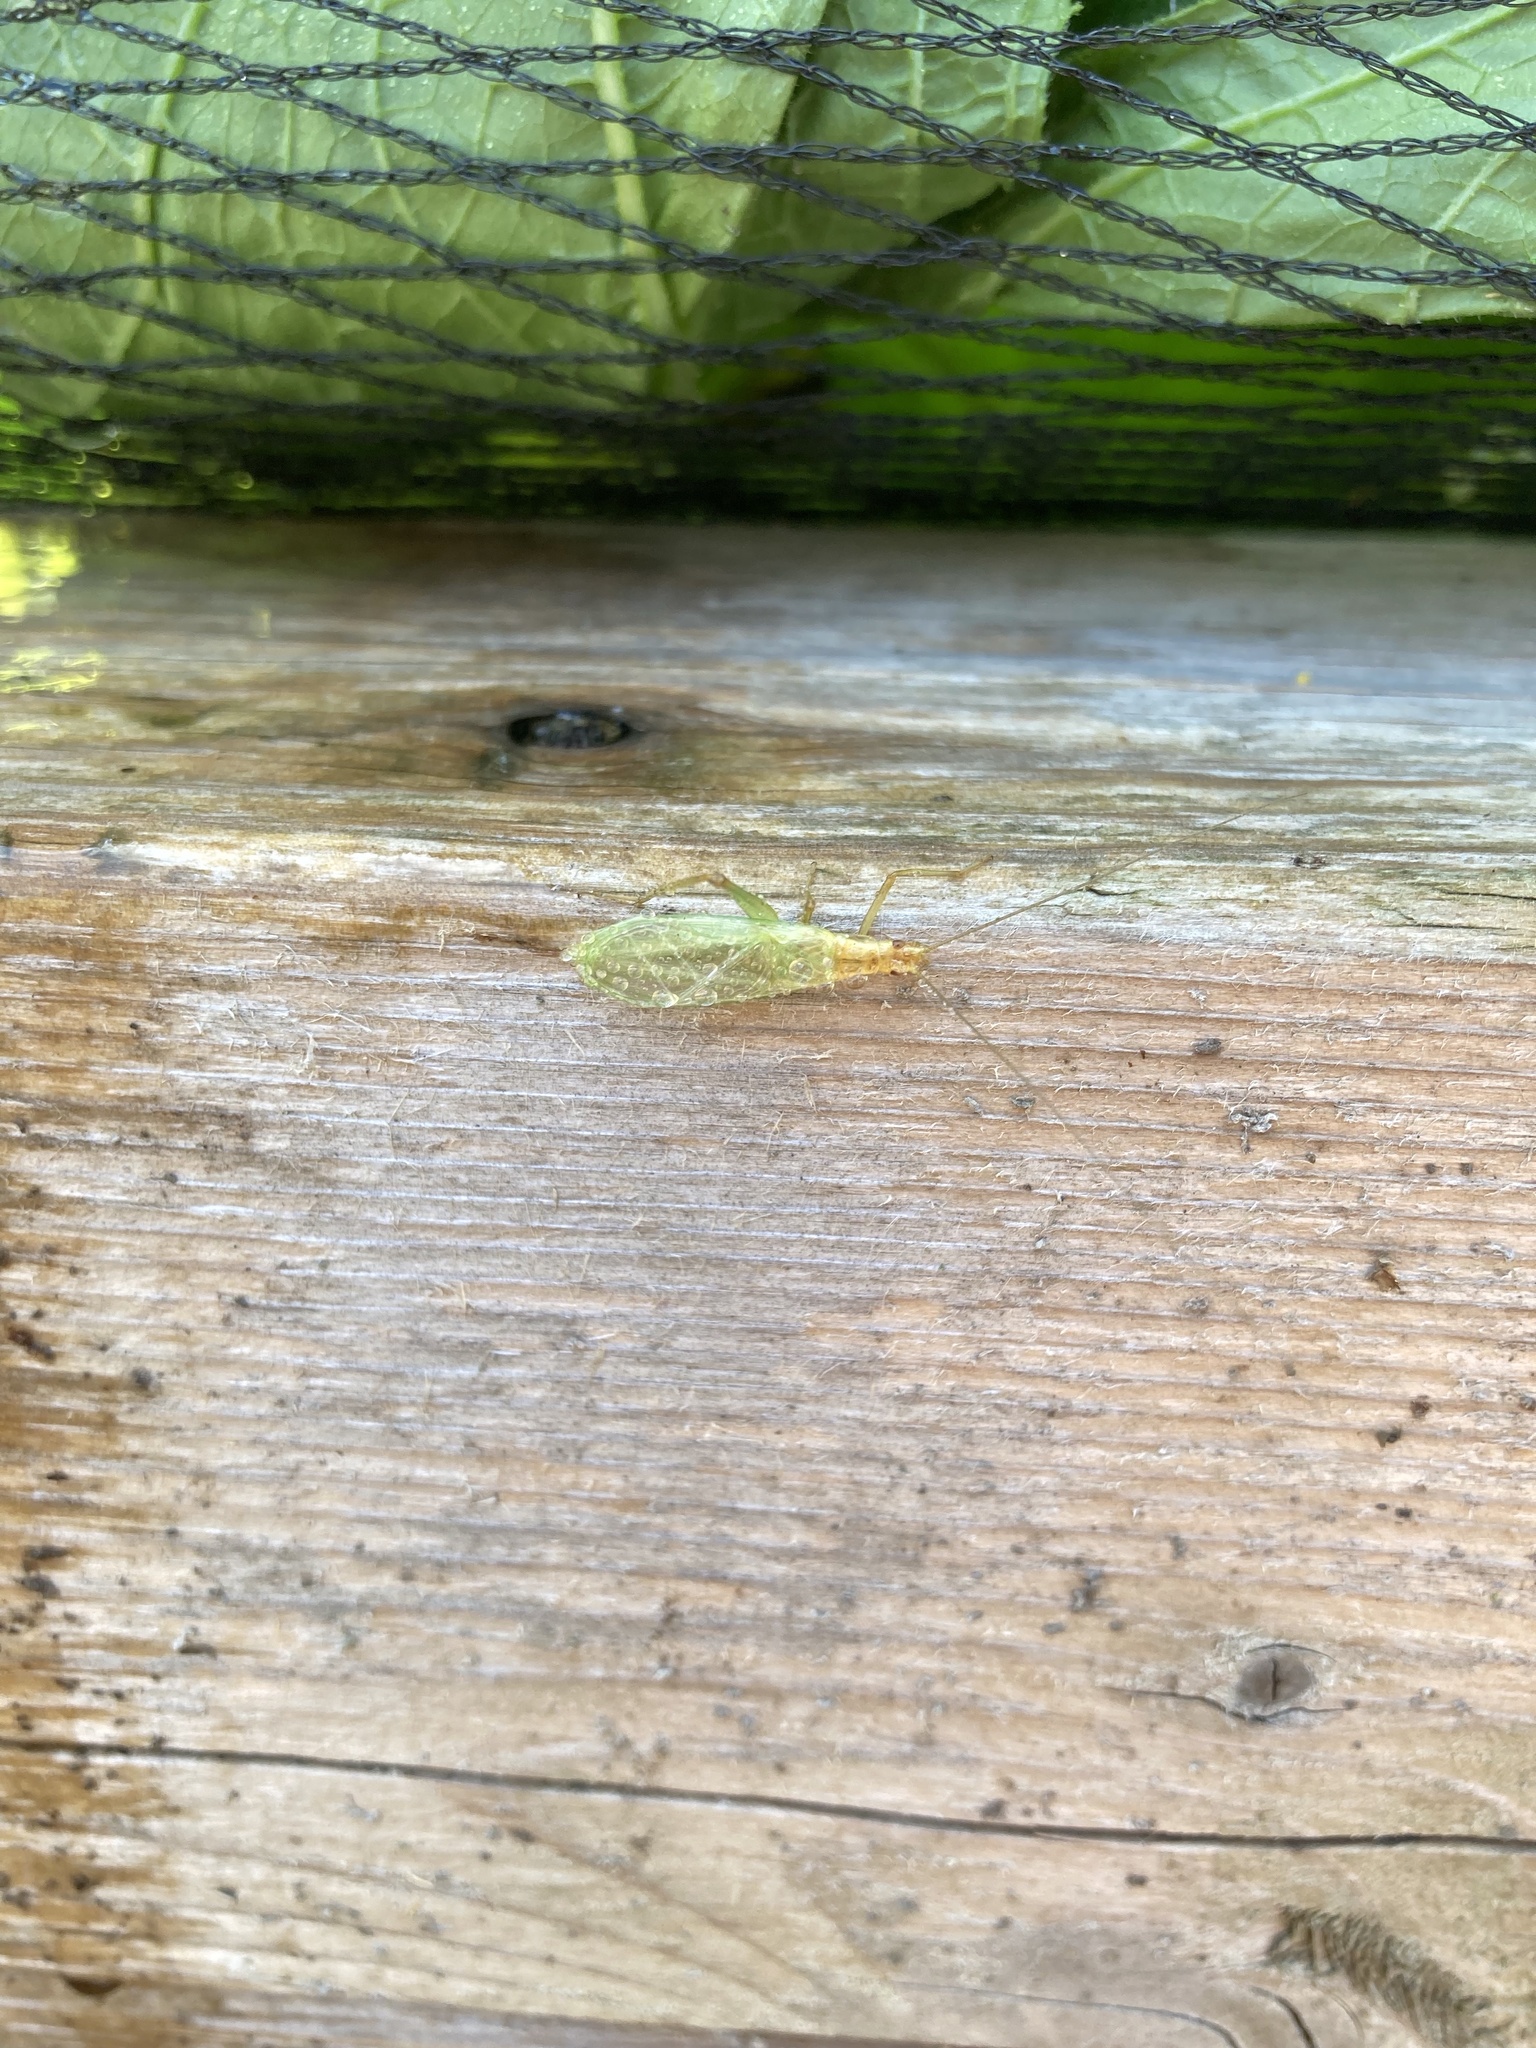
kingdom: Animalia
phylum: Arthropoda
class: Insecta
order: Orthoptera
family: Gryllidae
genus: Oecanthus
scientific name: Oecanthus pini
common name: Pine tree cricket
